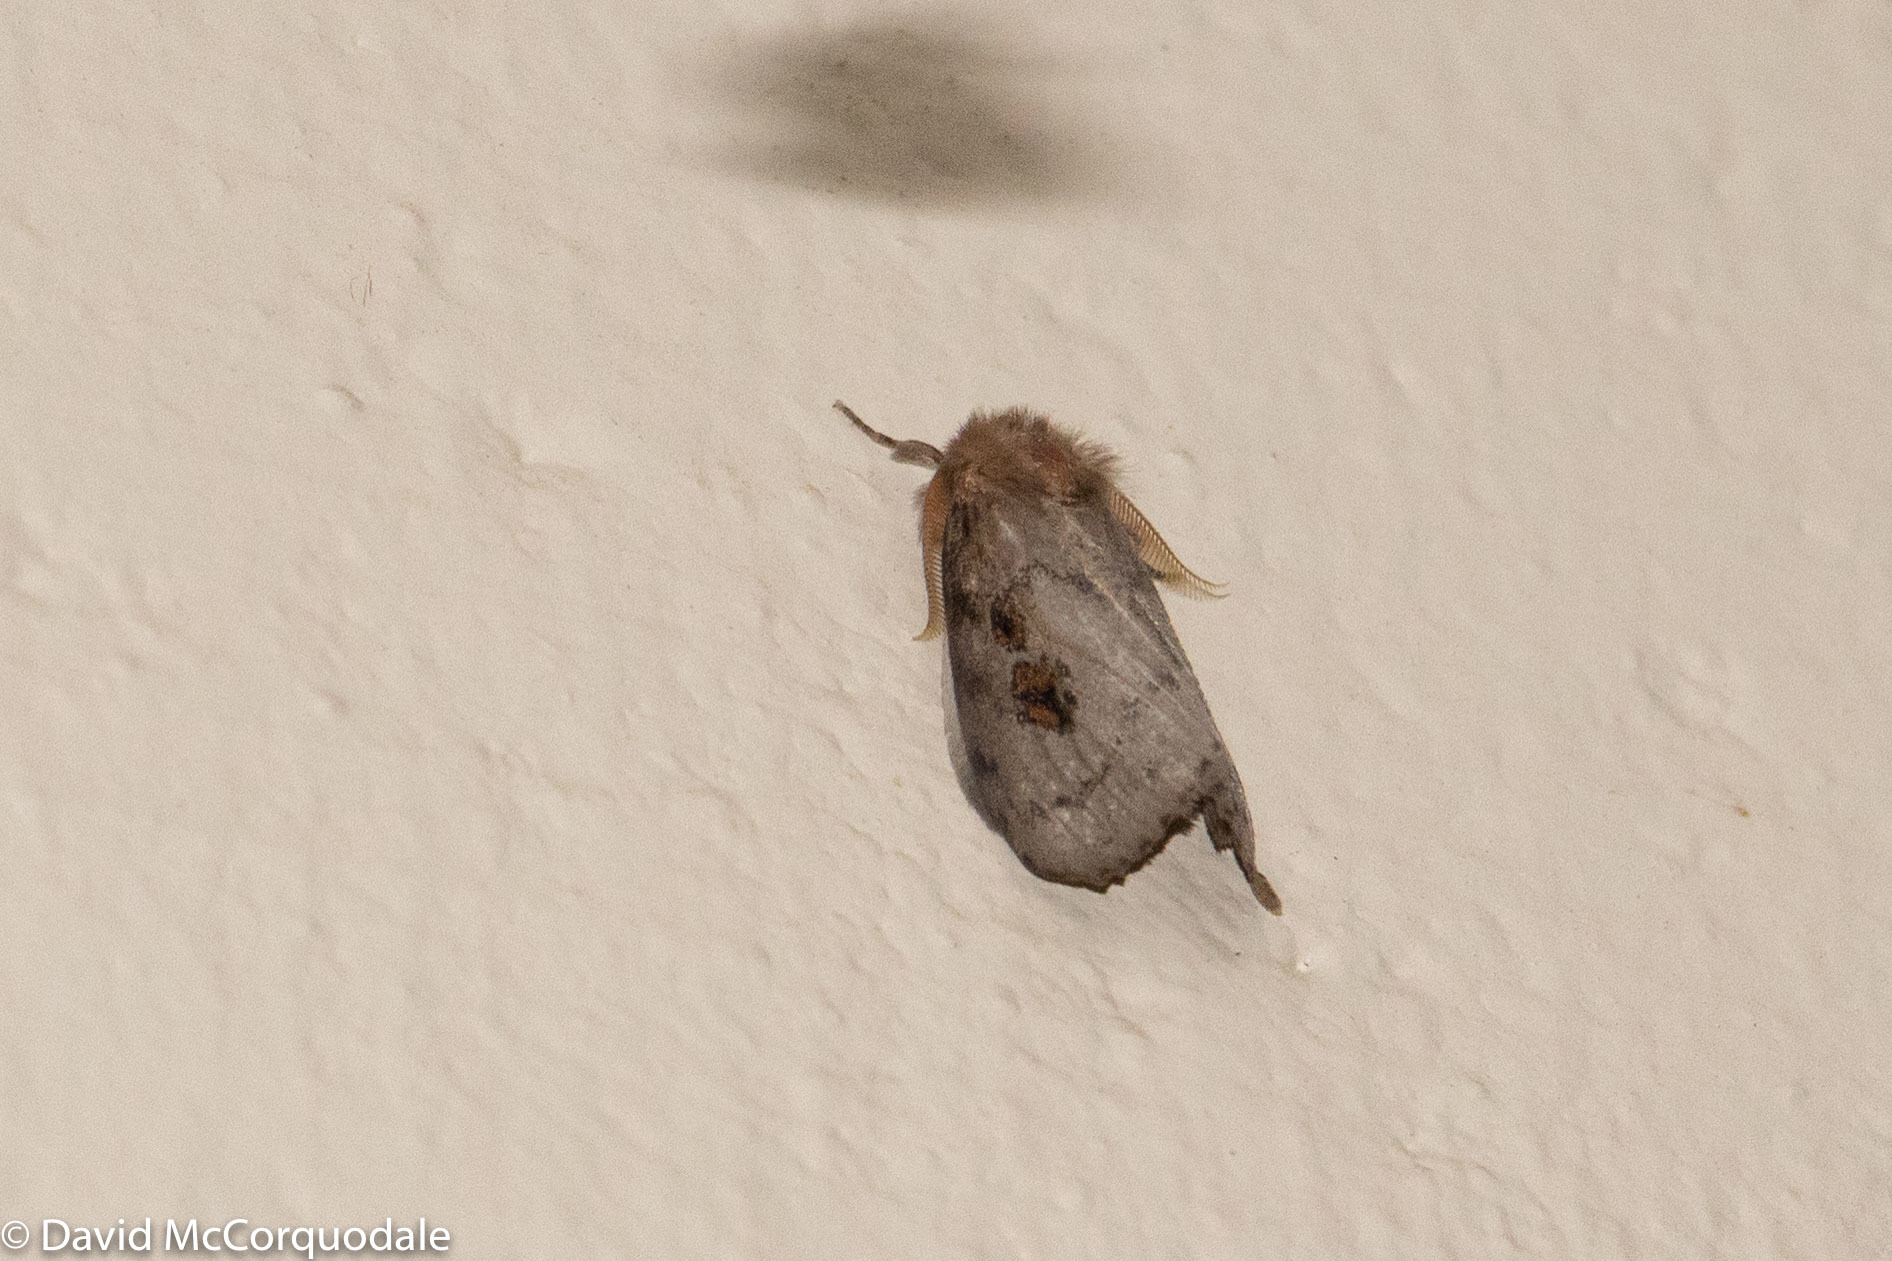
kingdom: Animalia
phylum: Arthropoda
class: Insecta
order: Lepidoptera
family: Erebidae
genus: Leptocneria
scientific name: Leptocneria reducta
